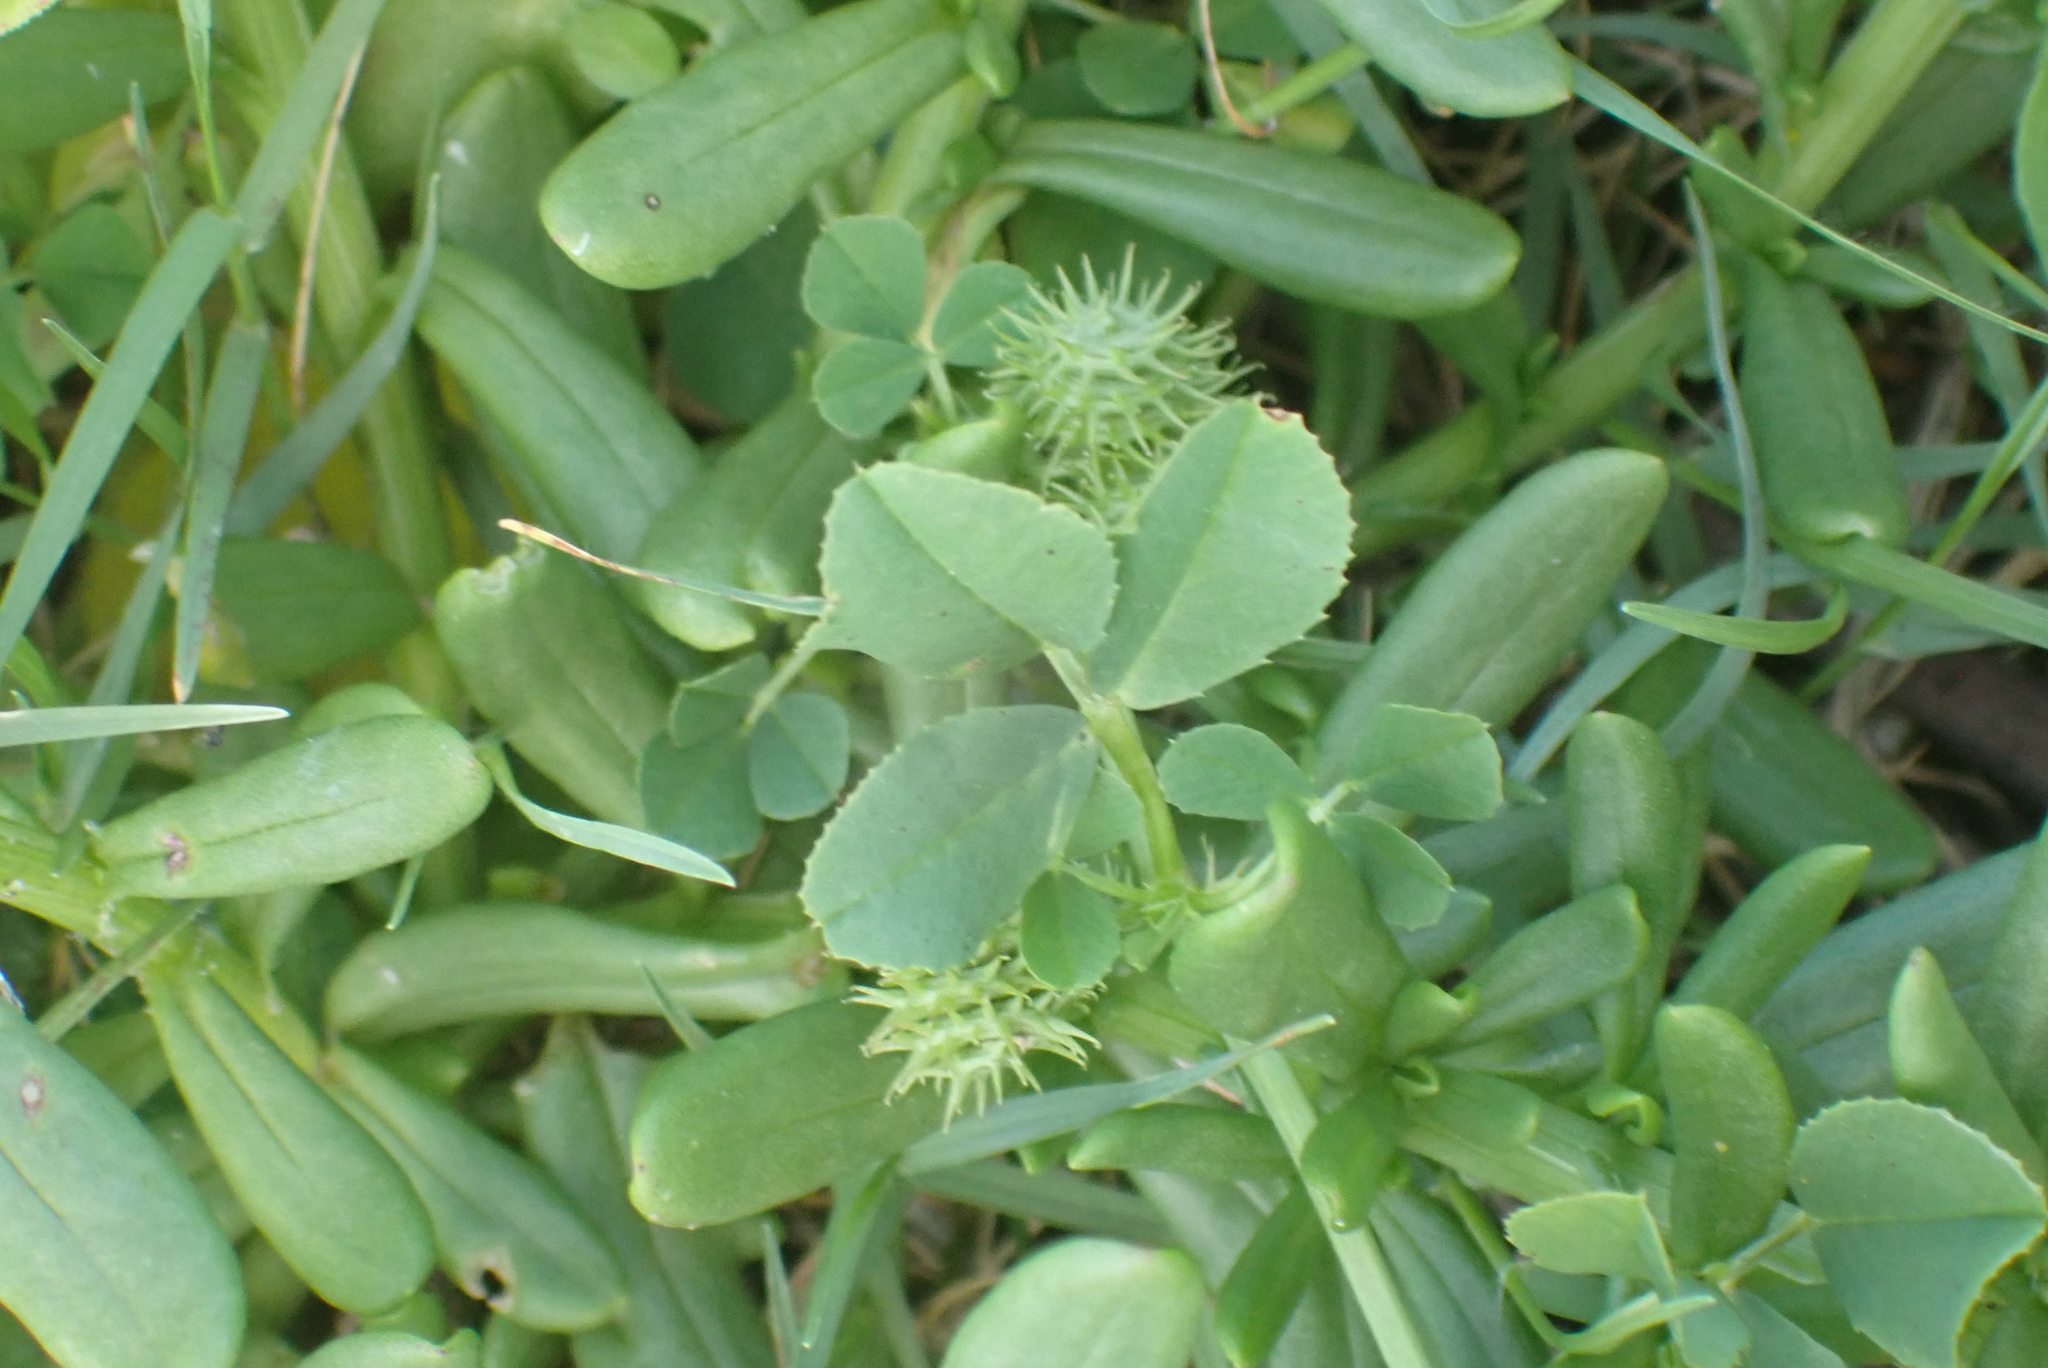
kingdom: Plantae
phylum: Tracheophyta
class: Magnoliopsida
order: Fabales
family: Fabaceae
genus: Medicago
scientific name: Medicago polymorpha
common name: Burclover
